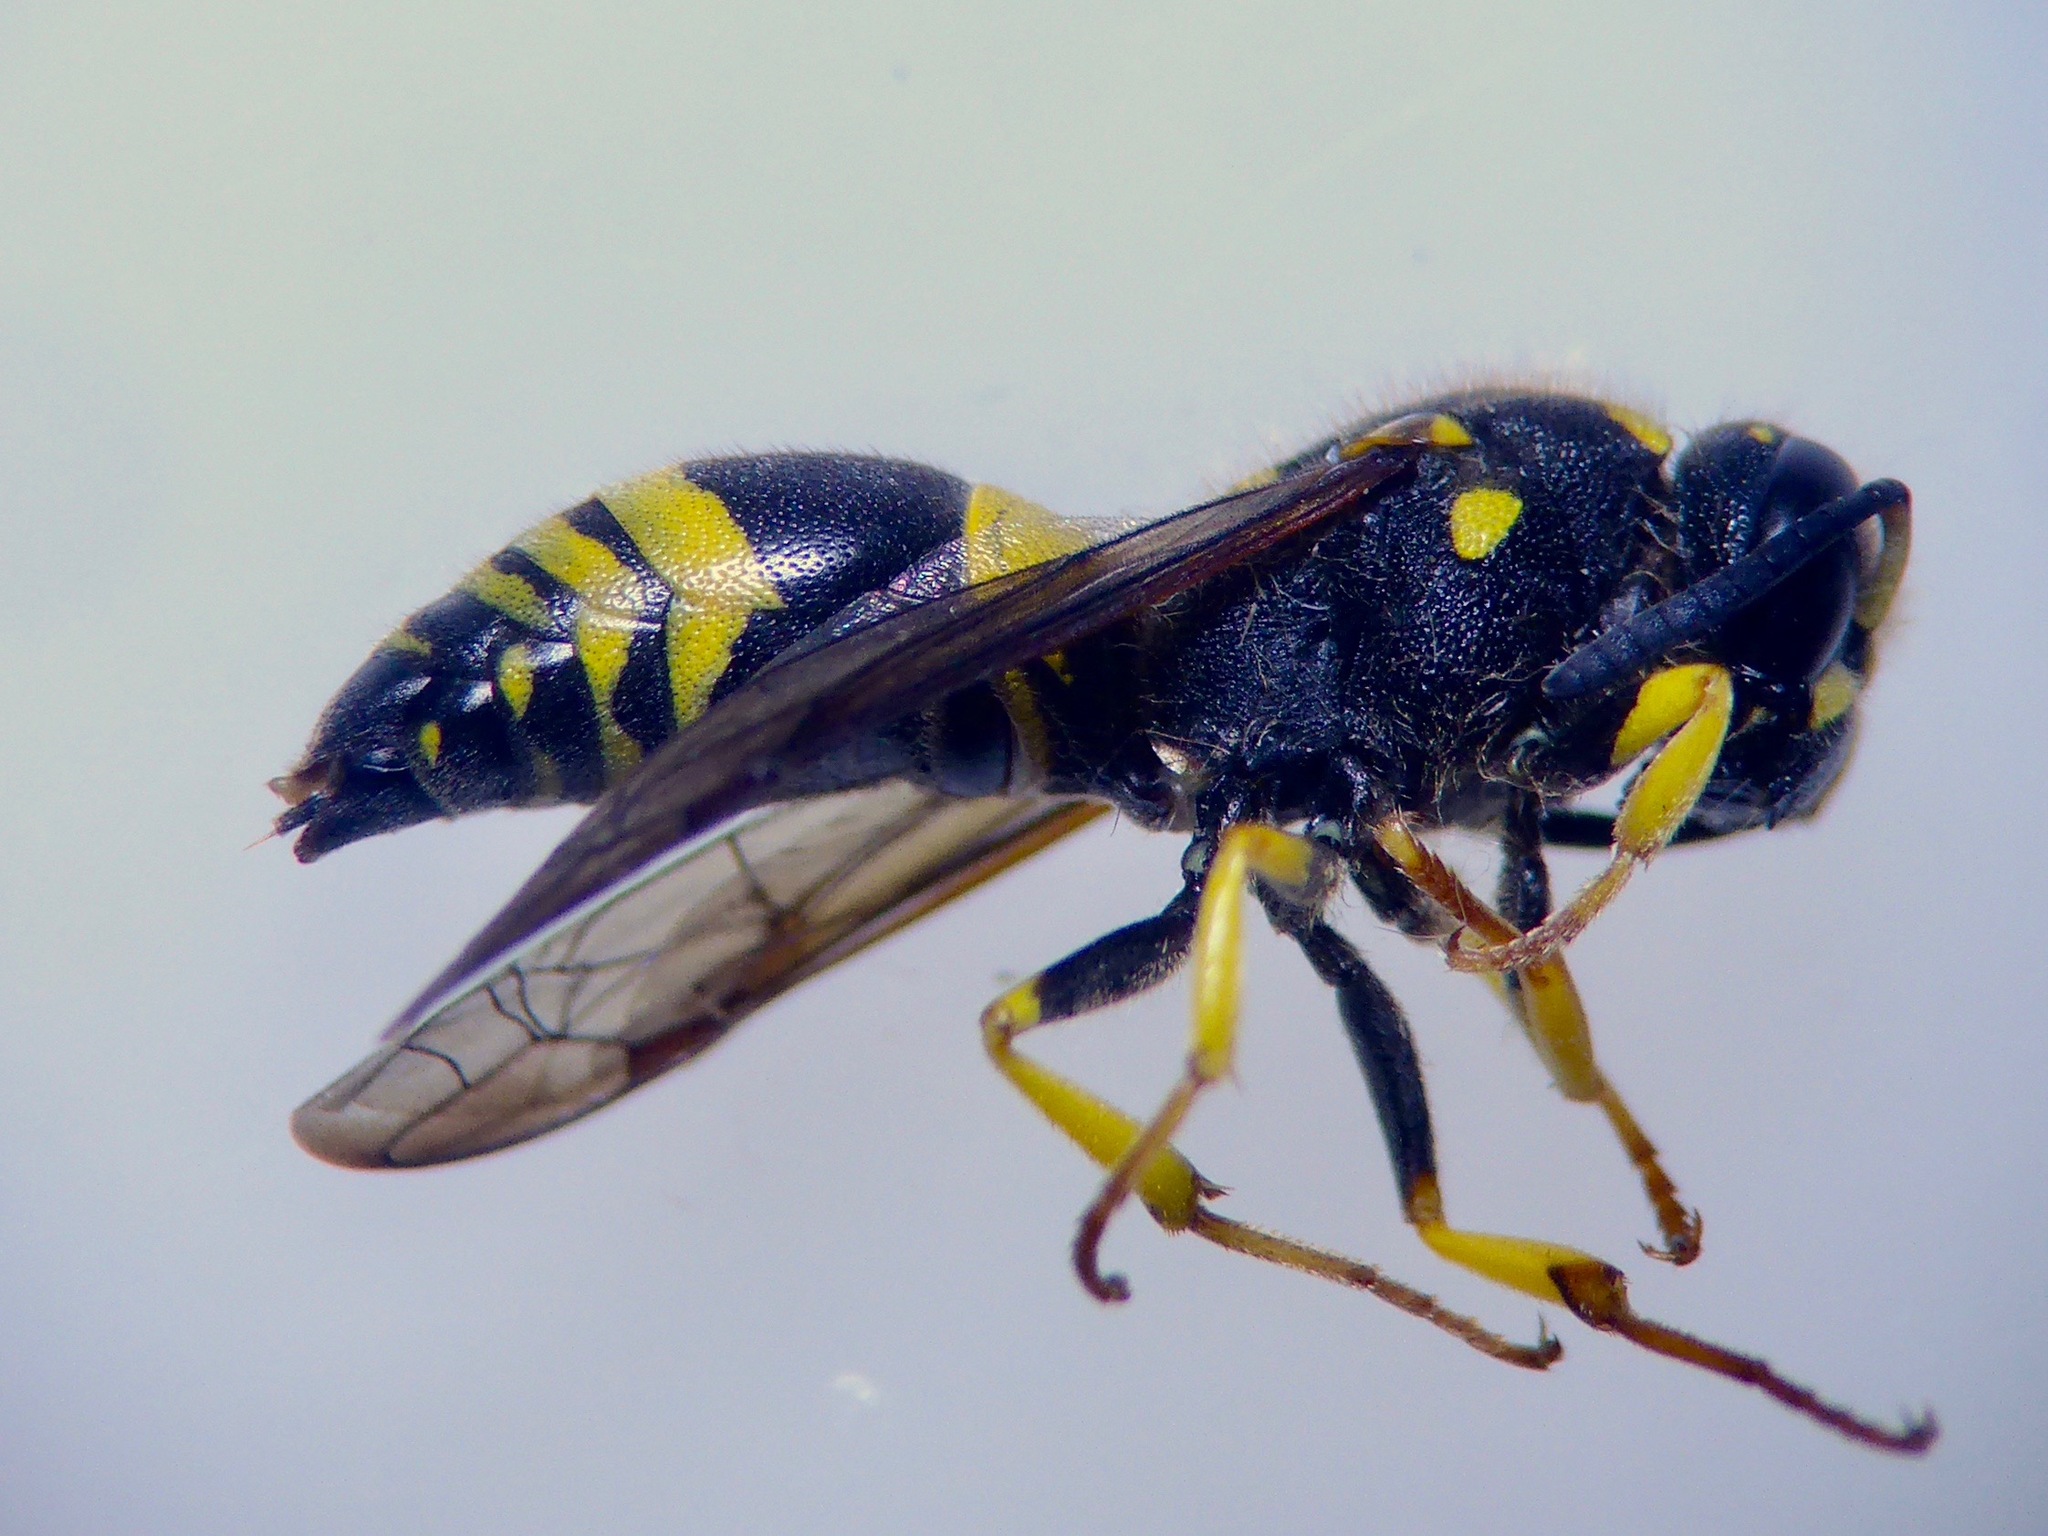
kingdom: Animalia
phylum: Arthropoda
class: Insecta
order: Hymenoptera
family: Vespidae
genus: Ancistrocerus
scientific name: Ancistrocerus gazella
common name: European tube wasp
